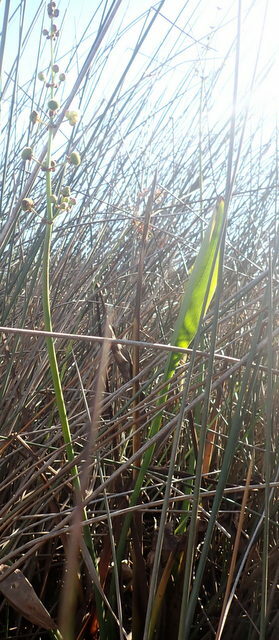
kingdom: Plantae
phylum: Tracheophyta
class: Liliopsida
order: Alismatales
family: Alismataceae
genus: Sagittaria
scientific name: Sagittaria lancifolia
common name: Lance-leaf arrowhead
